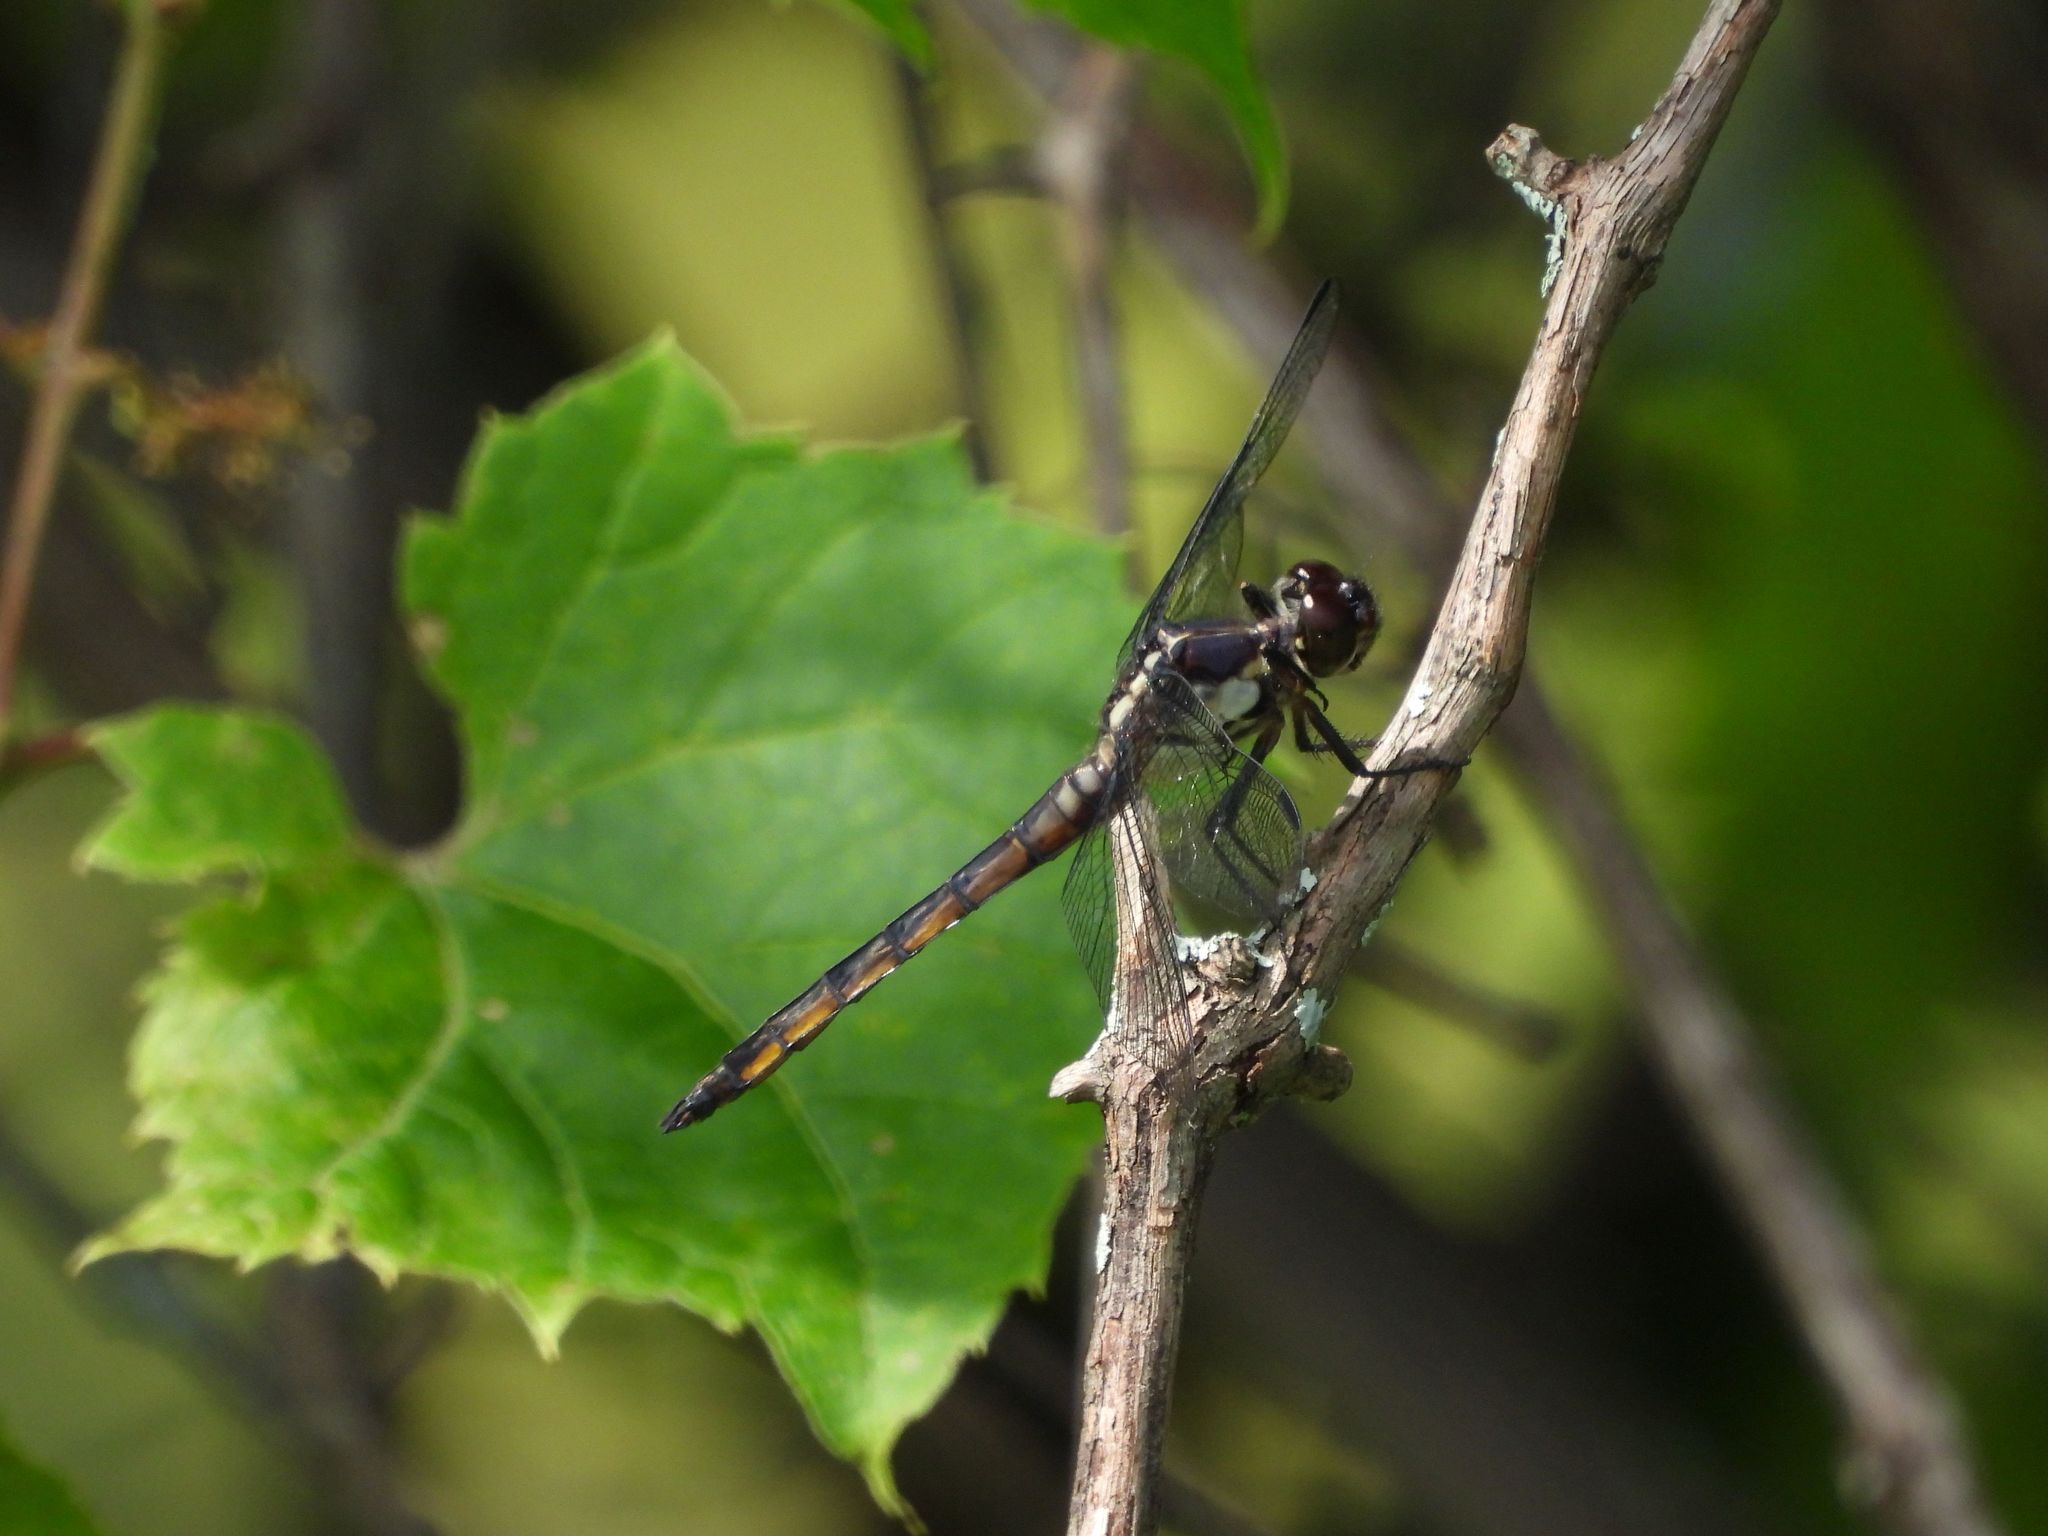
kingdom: Animalia
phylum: Arthropoda
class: Insecta
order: Odonata
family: Libellulidae
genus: Libellula
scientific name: Libellula incesta
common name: Slaty skimmer
